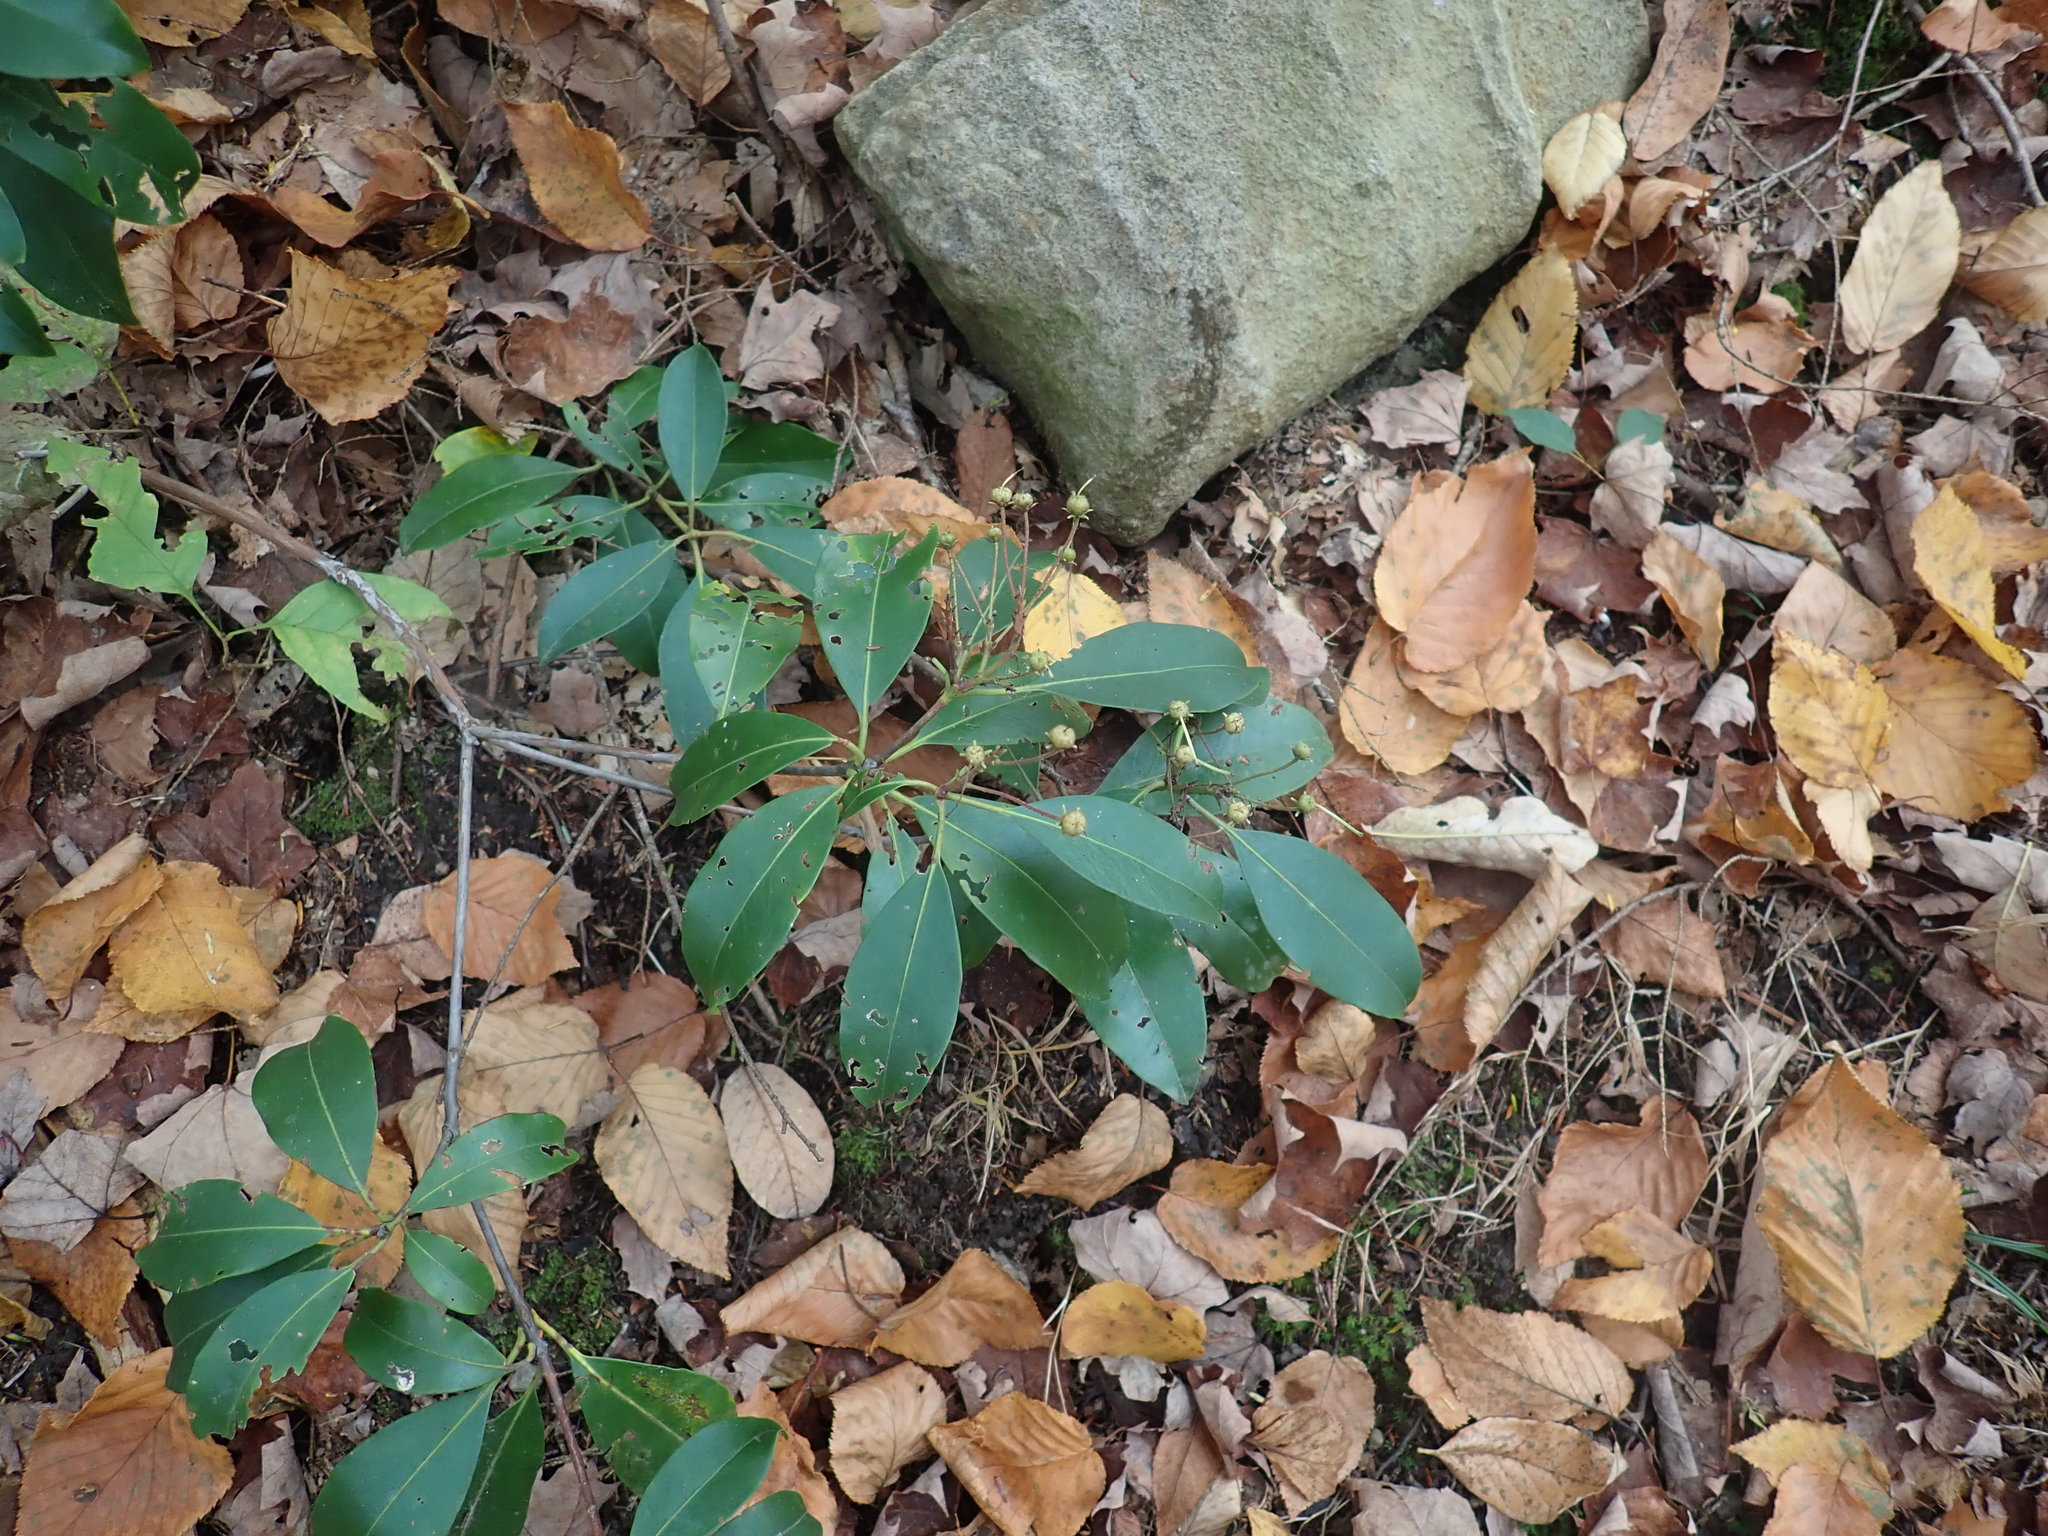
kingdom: Plantae
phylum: Tracheophyta
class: Magnoliopsida
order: Ericales
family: Ericaceae
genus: Kalmia
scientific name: Kalmia latifolia
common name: Mountain-laurel
